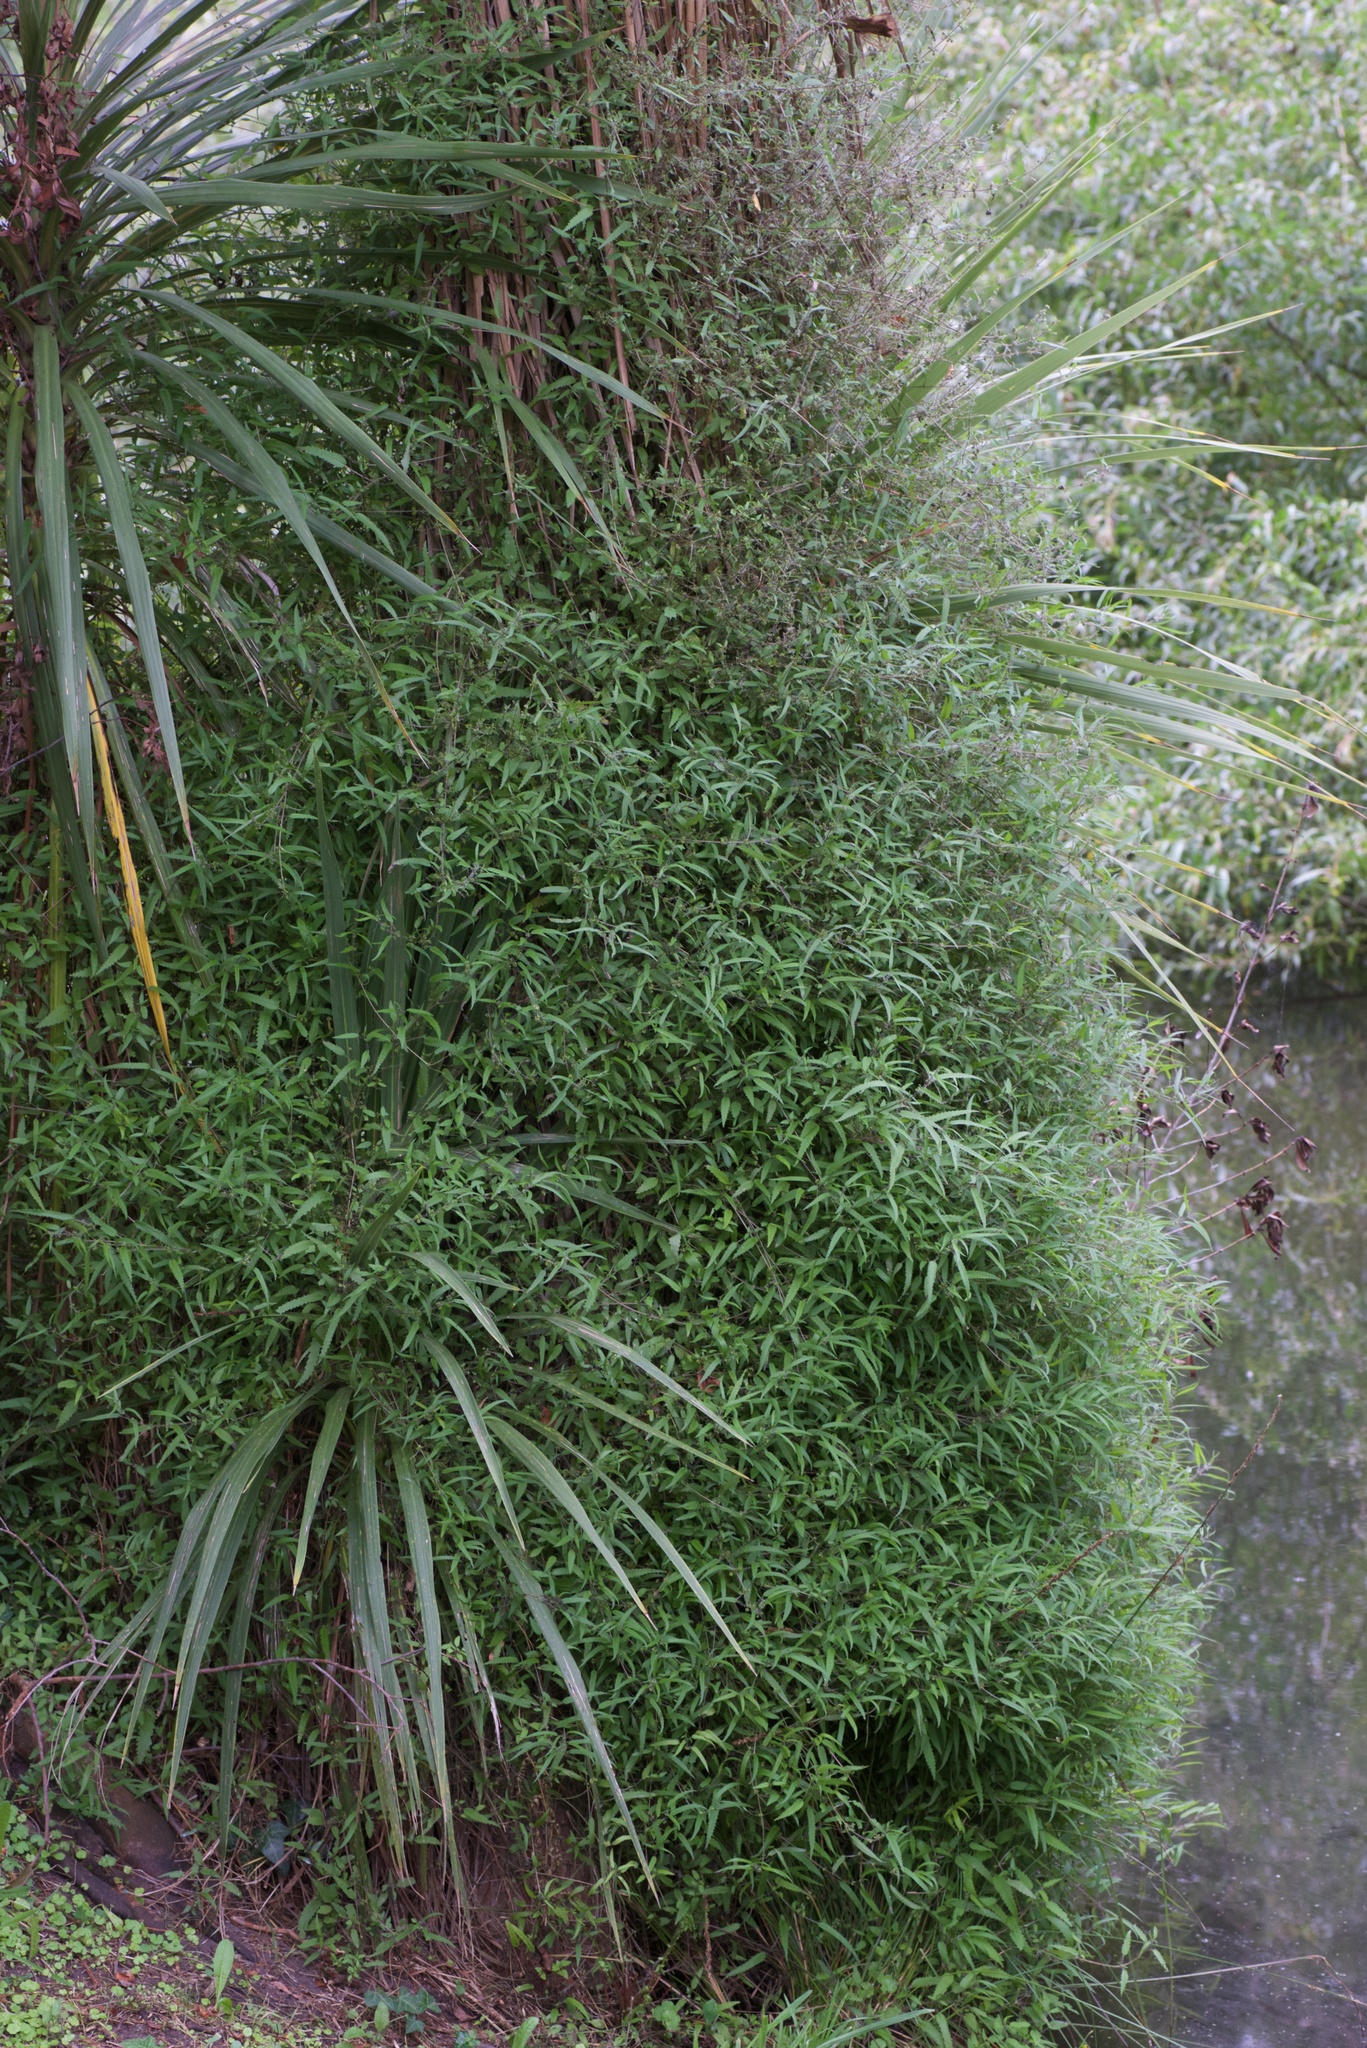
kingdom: Plantae
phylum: Tracheophyta
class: Magnoliopsida
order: Rosales
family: Urticaceae
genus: Urtica
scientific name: Urtica perconfusa
